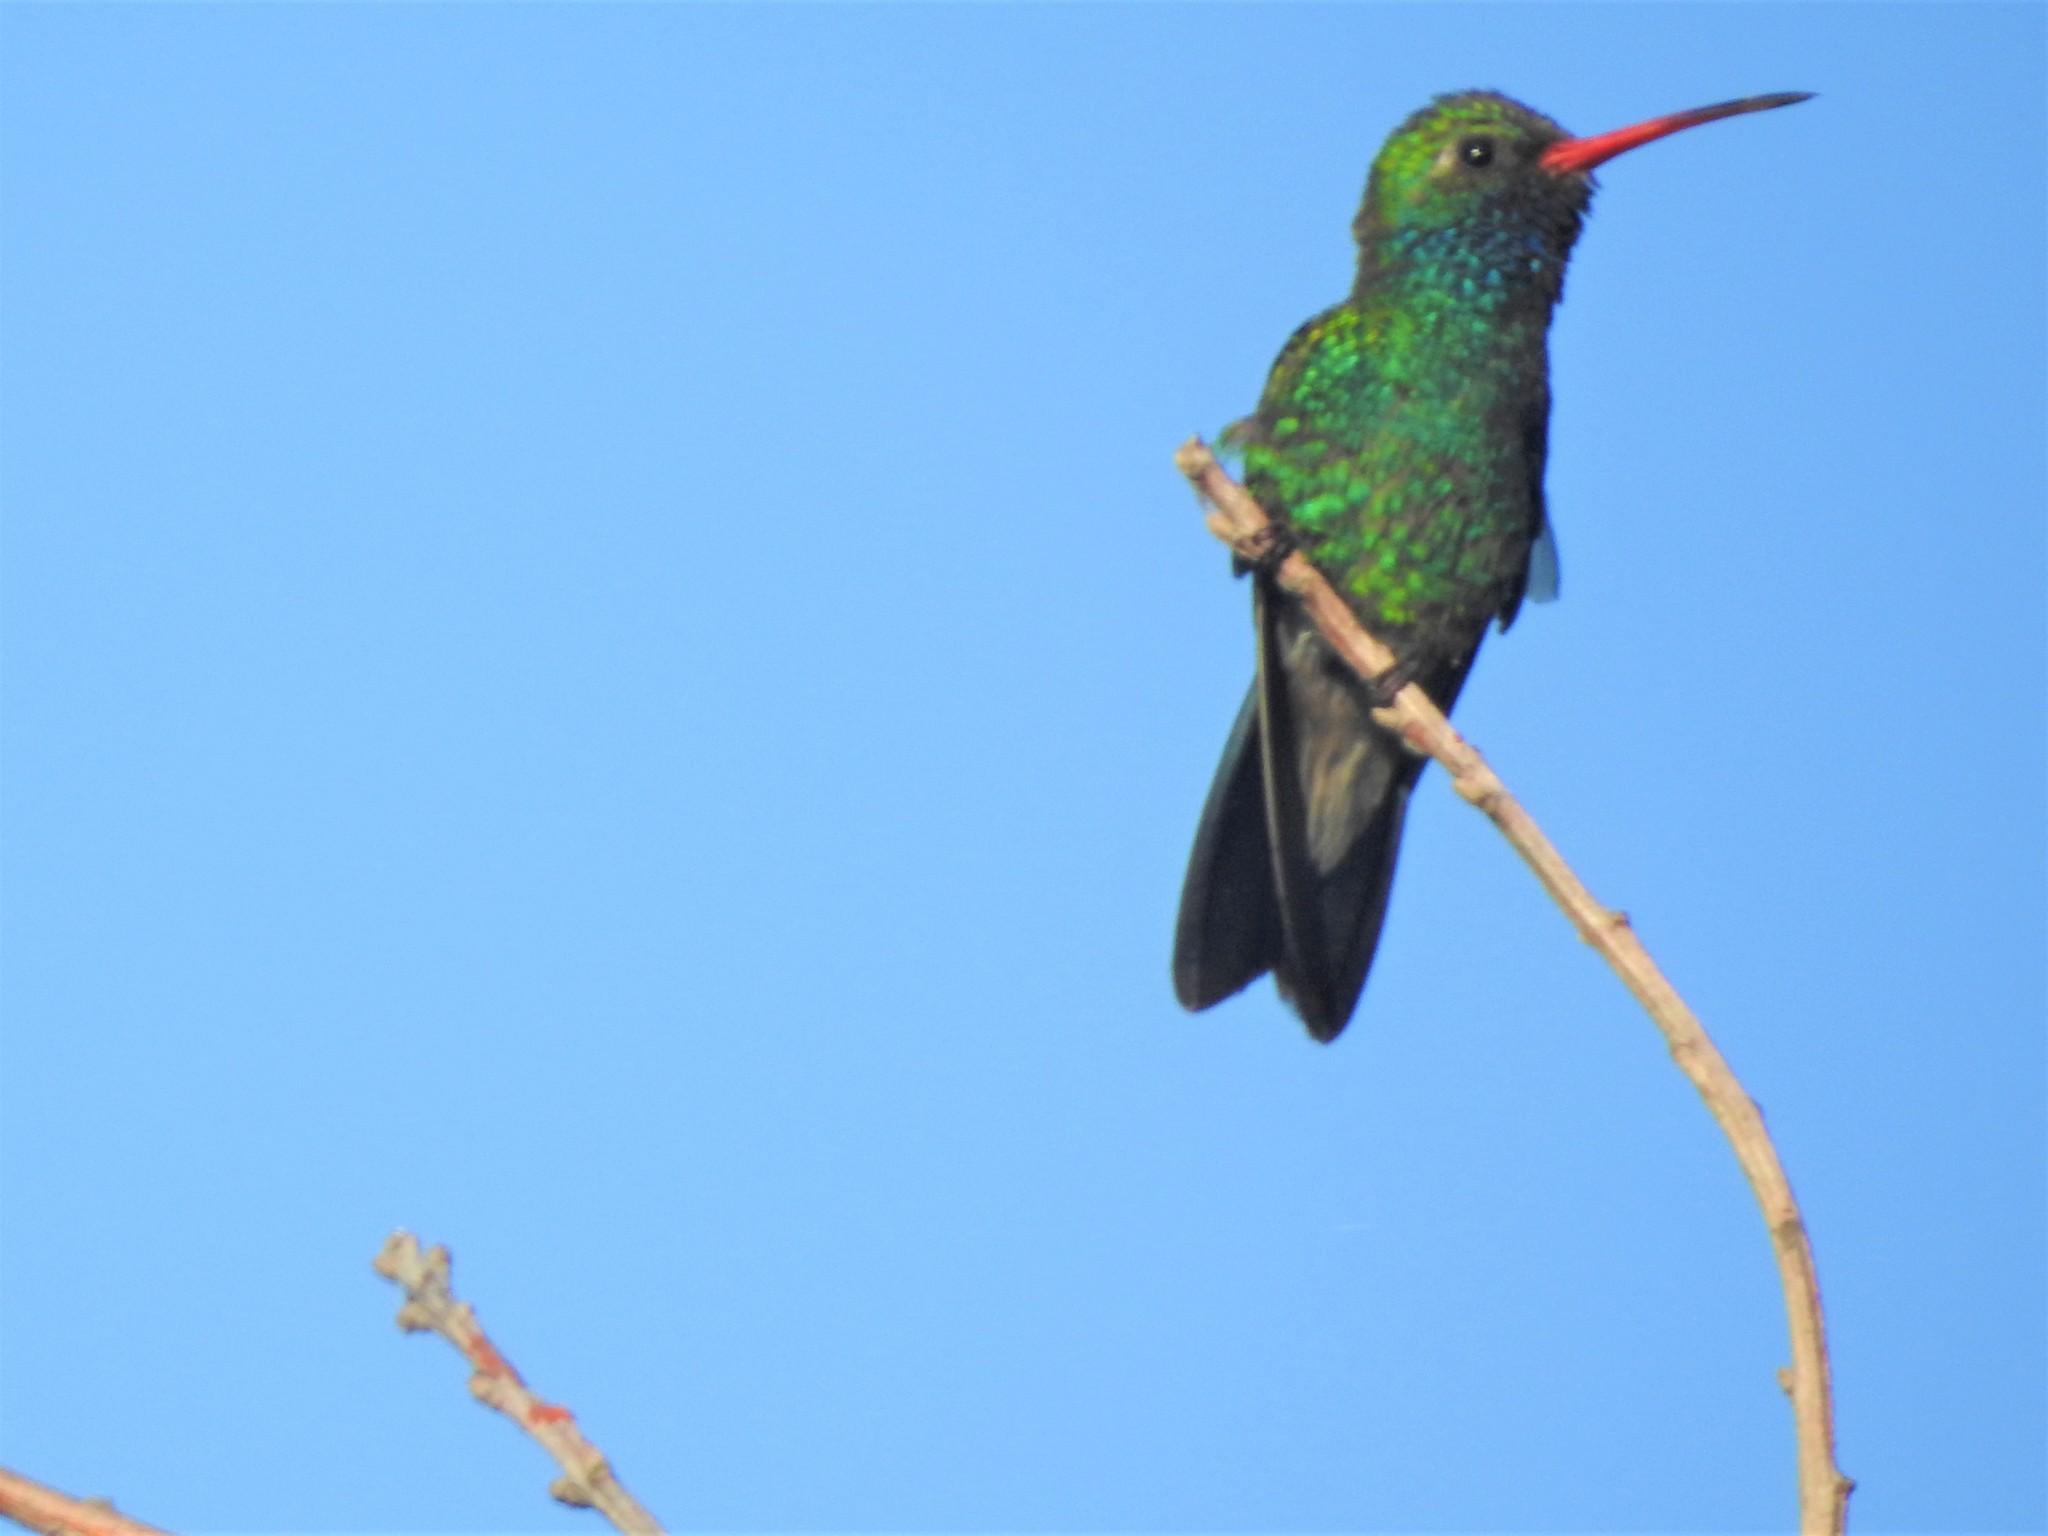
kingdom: Animalia
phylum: Chordata
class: Aves
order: Apodiformes
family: Trochilidae
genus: Cynanthus
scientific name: Cynanthus latirostris
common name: Broad-billed hummingbird
